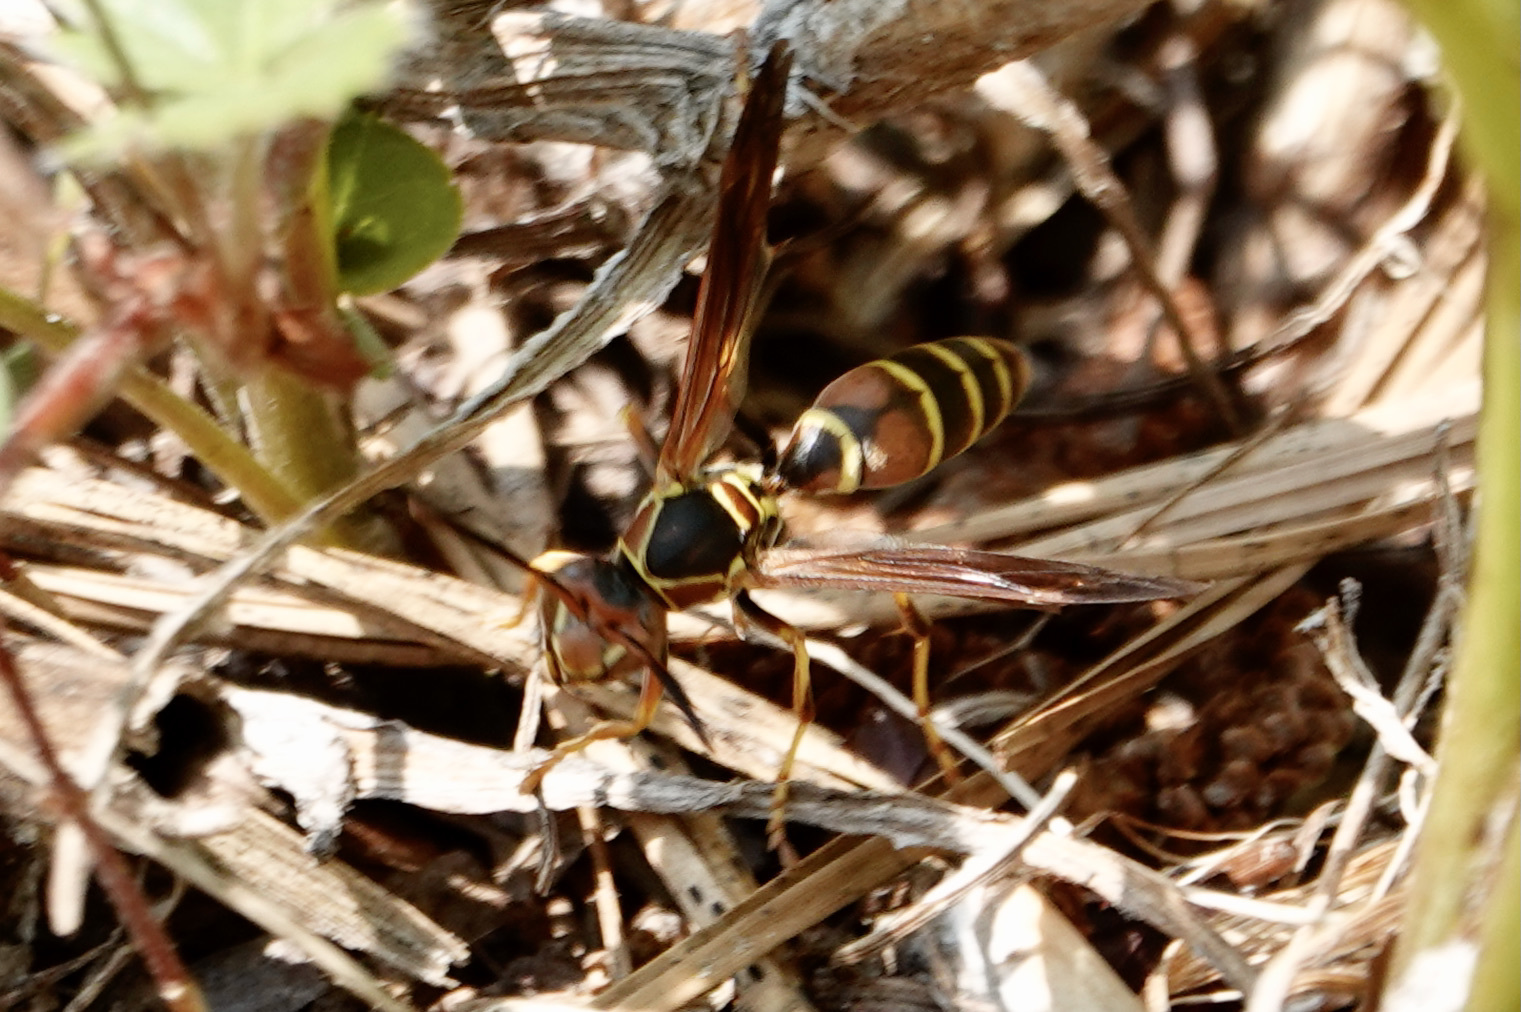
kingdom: Animalia
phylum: Arthropoda
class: Insecta
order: Hymenoptera
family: Eumenidae
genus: Polistes
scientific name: Polistes dorsalis
